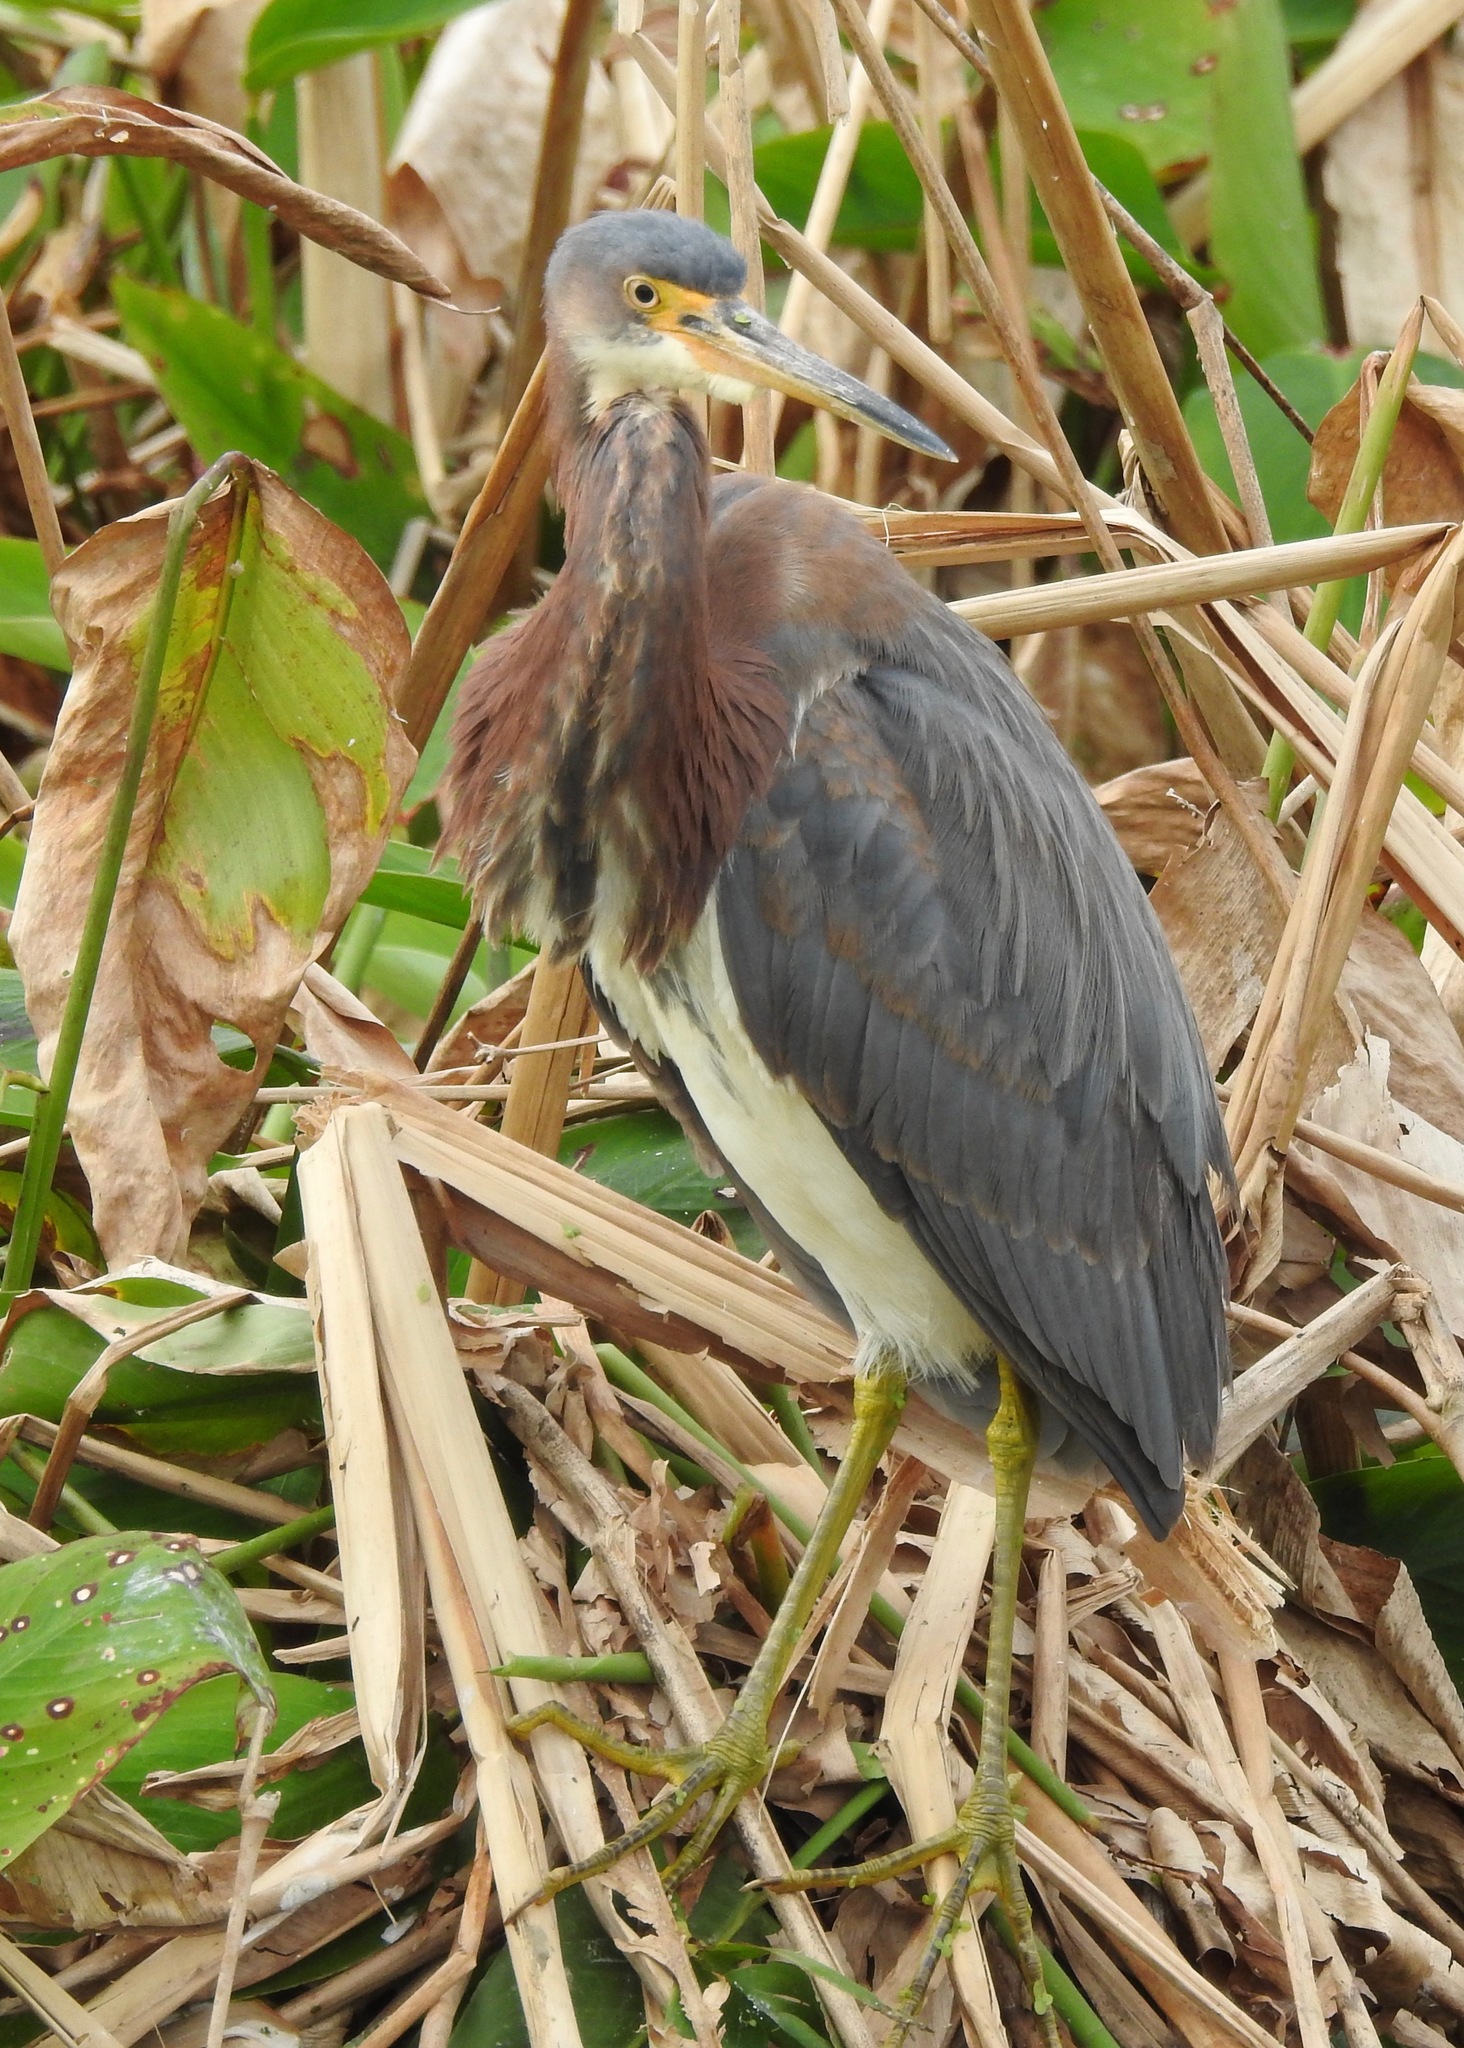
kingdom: Animalia
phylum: Chordata
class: Aves
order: Pelecaniformes
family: Ardeidae
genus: Egretta
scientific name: Egretta tricolor
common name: Tricolored heron
